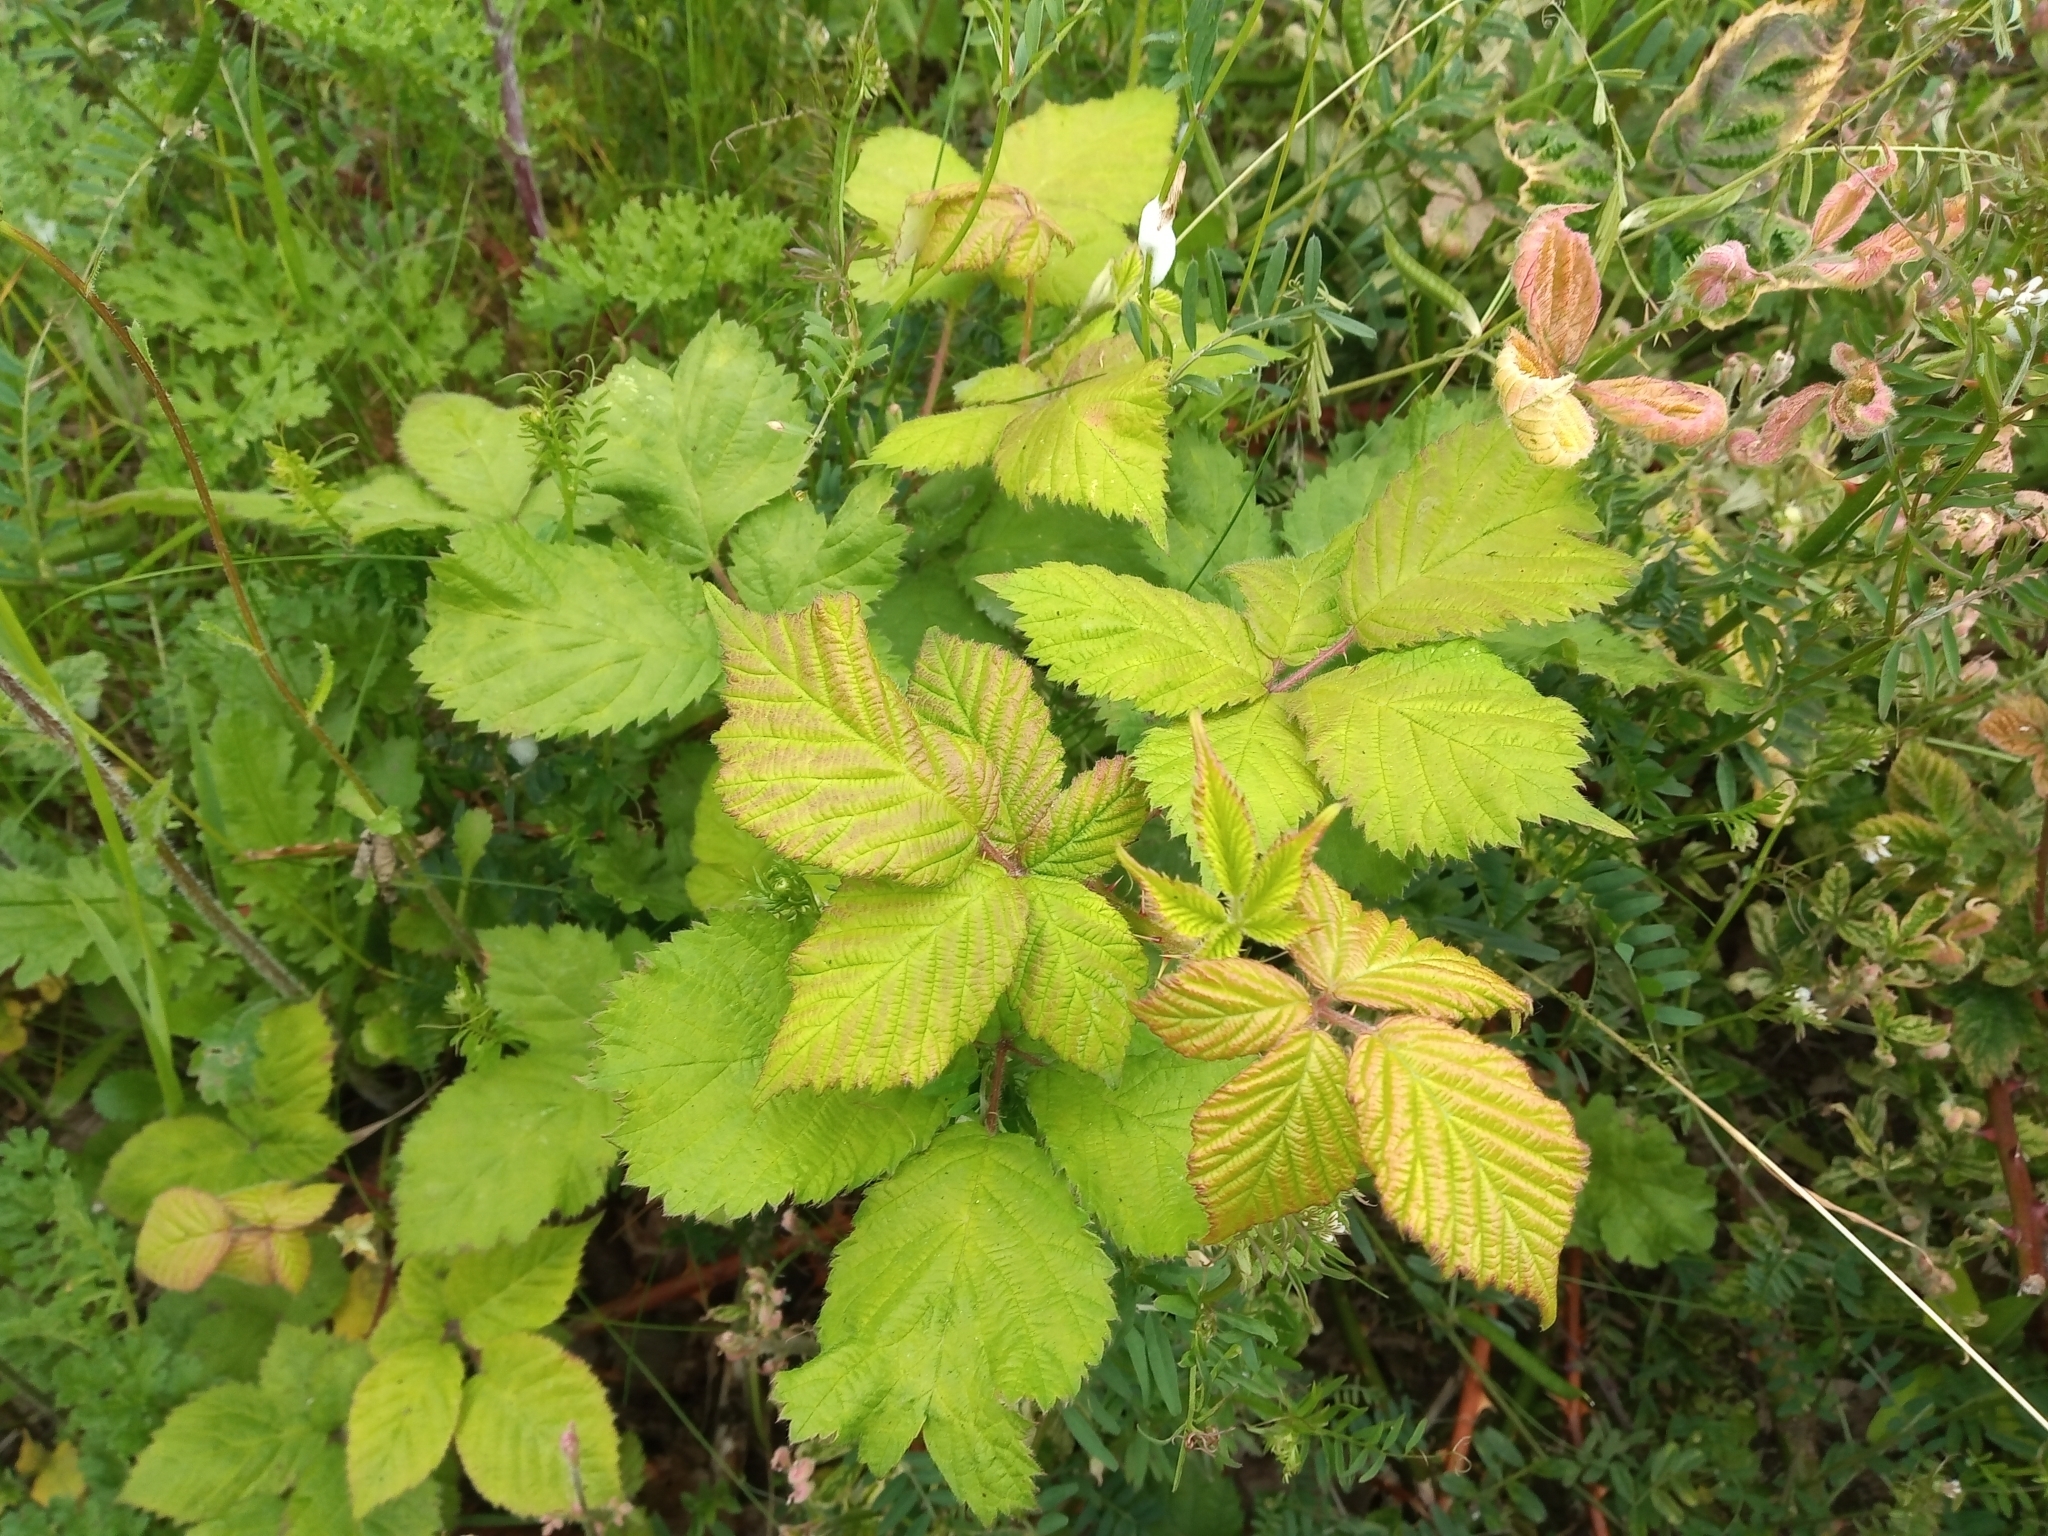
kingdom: Plantae
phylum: Tracheophyta
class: Magnoliopsida
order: Rosales
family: Rosaceae
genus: Rubus
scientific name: Rubus fruticosus
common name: Blackberry, bramble
